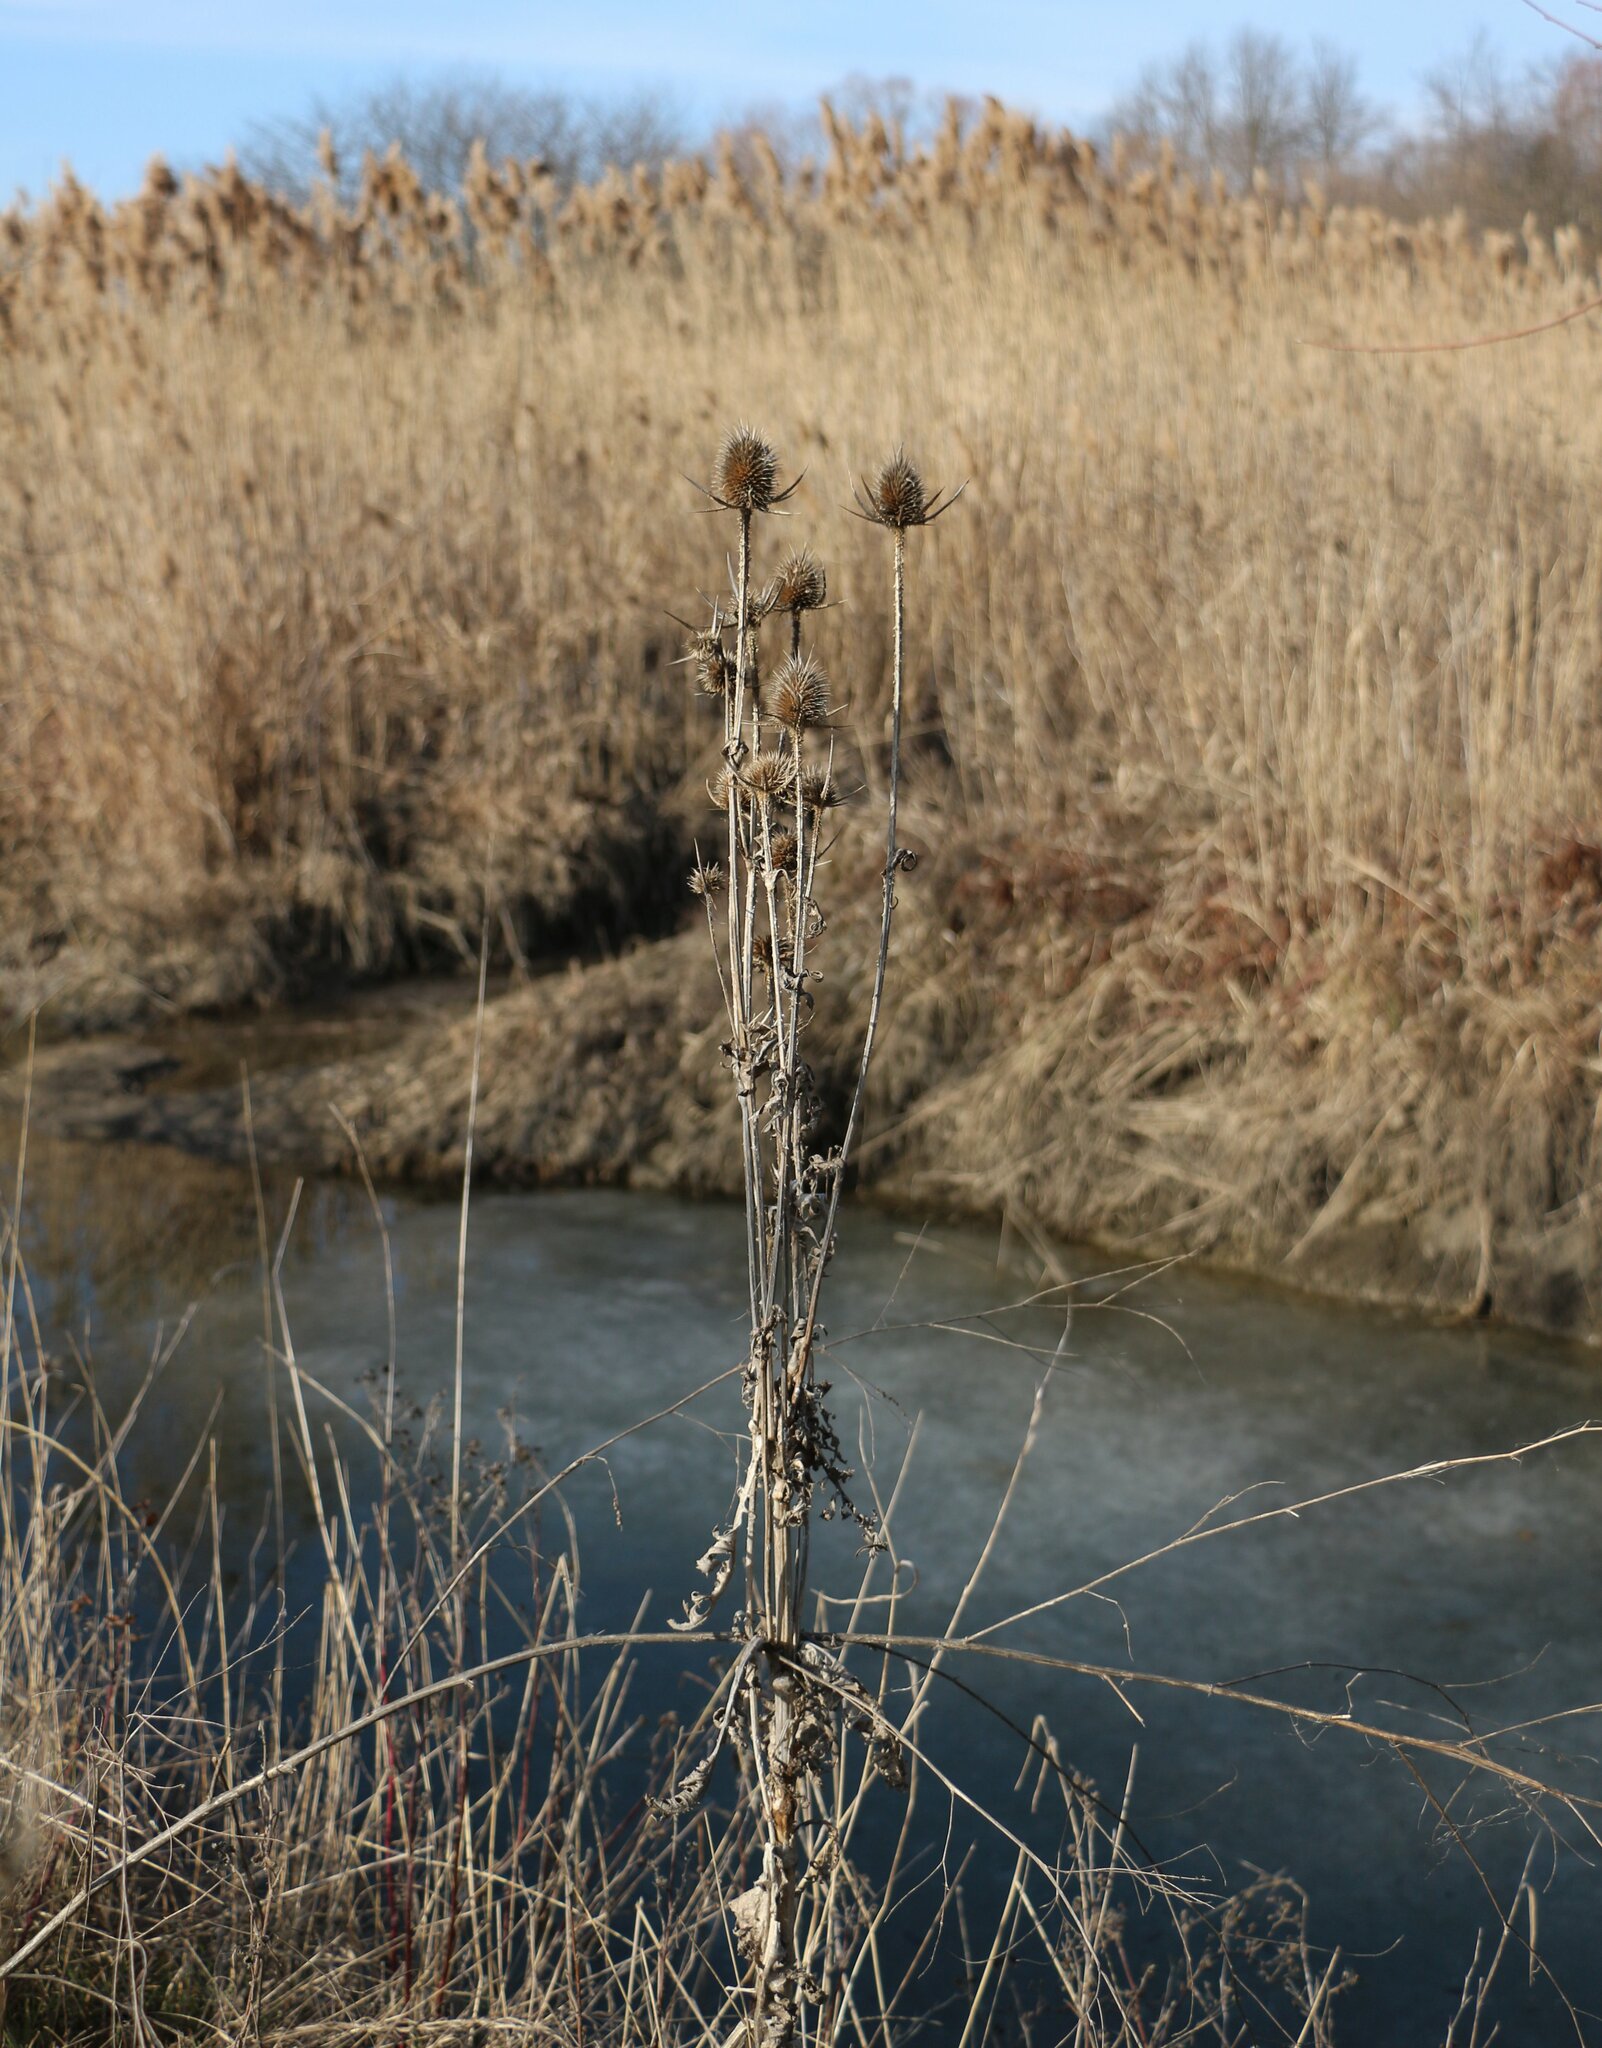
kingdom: Plantae
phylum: Tracheophyta
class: Magnoliopsida
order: Dipsacales
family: Caprifoliaceae
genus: Dipsacus
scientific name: Dipsacus laciniatus
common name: Cut-leaved teasel
